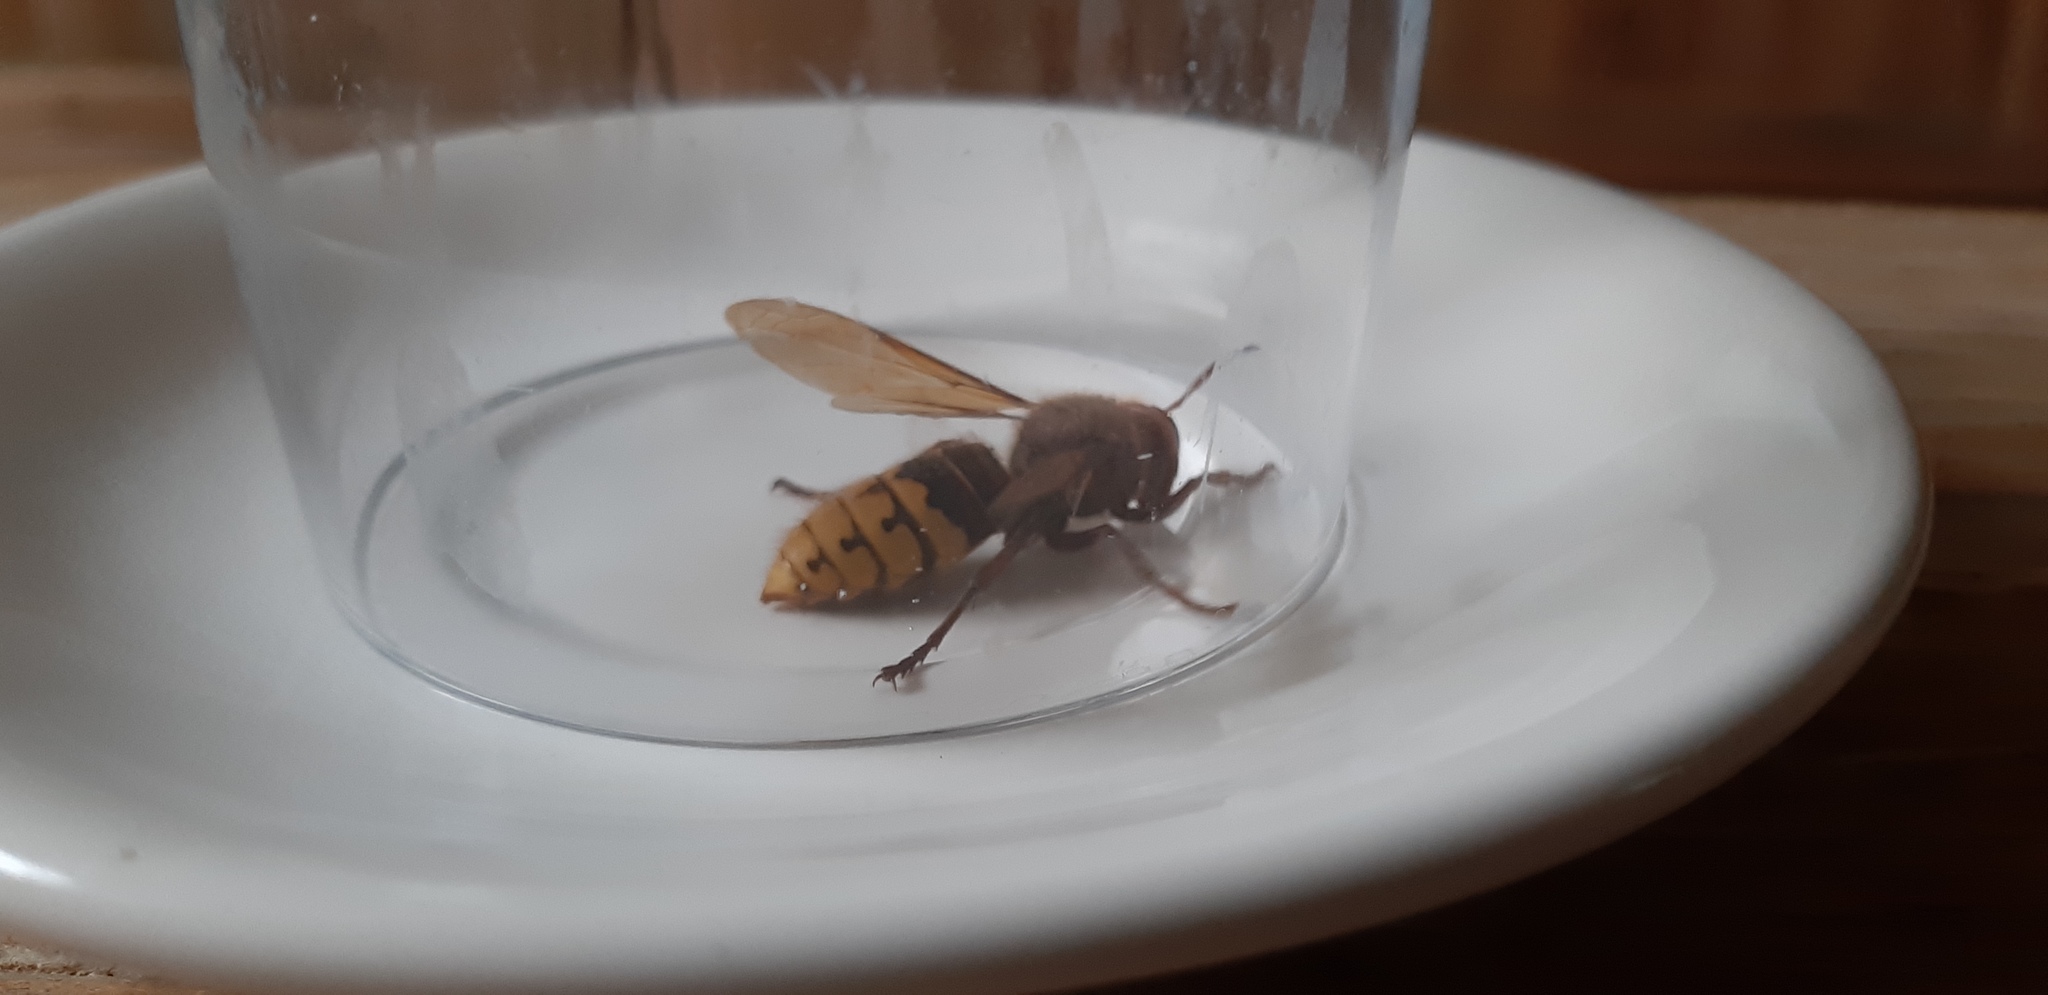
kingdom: Animalia
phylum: Arthropoda
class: Insecta
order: Hymenoptera
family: Vespidae
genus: Vespa
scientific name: Vespa crabro
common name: Hornet
